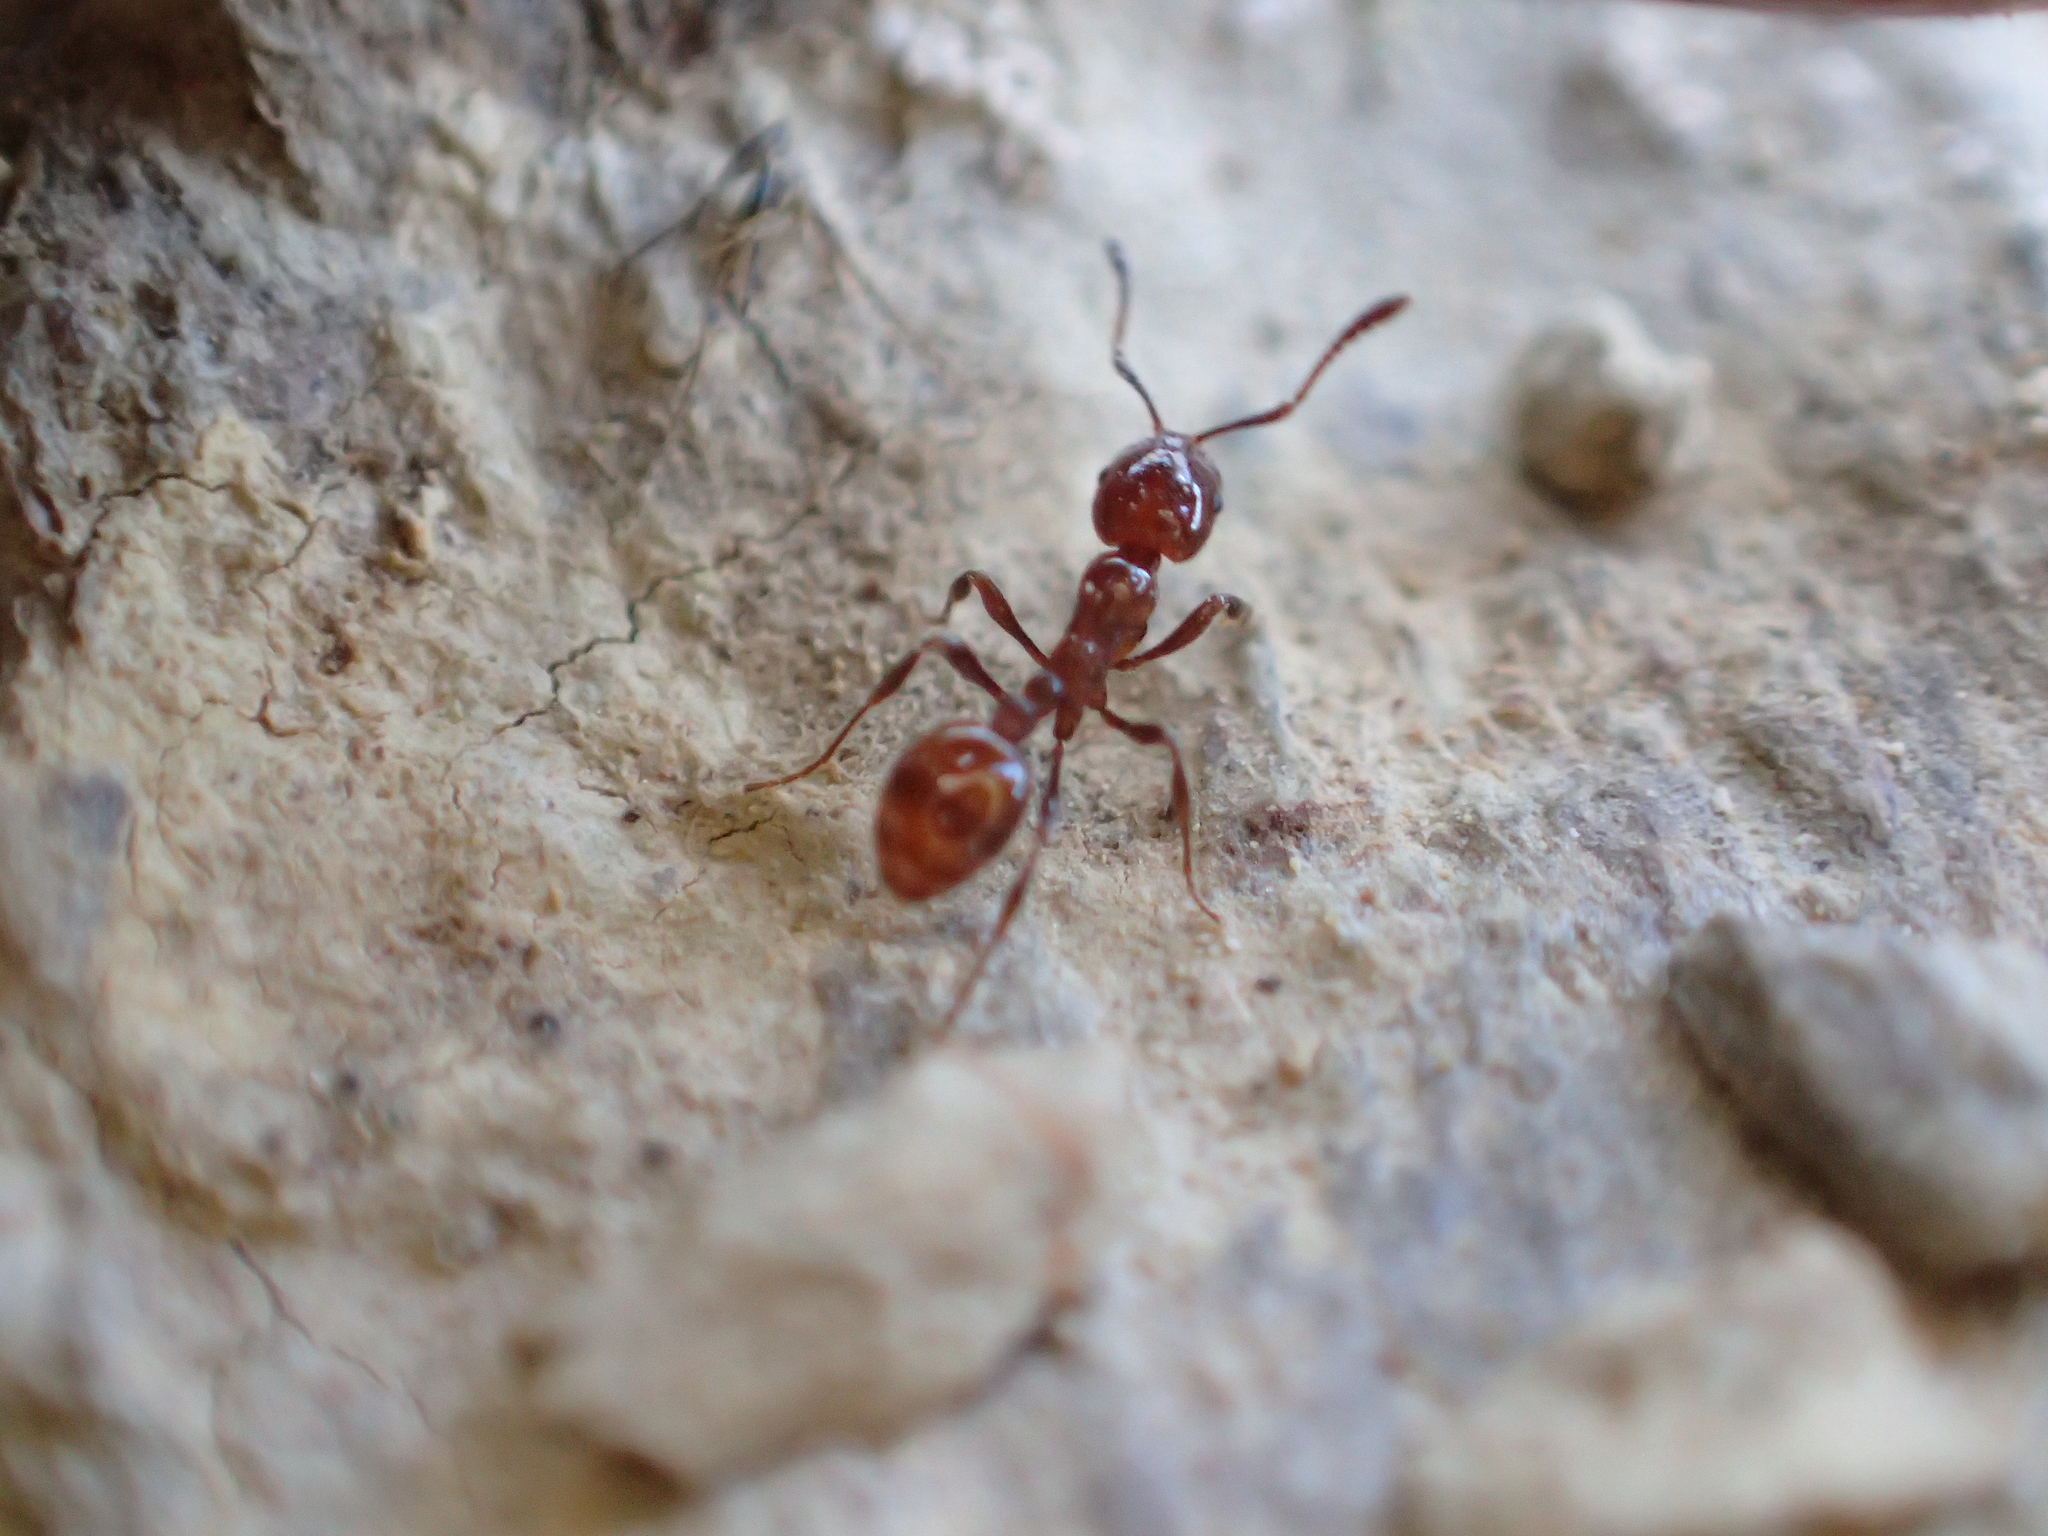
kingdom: Animalia
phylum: Arthropoda
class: Insecta
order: Hymenoptera
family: Formicidae
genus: Monomorium
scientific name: Monomorium antarcticum
